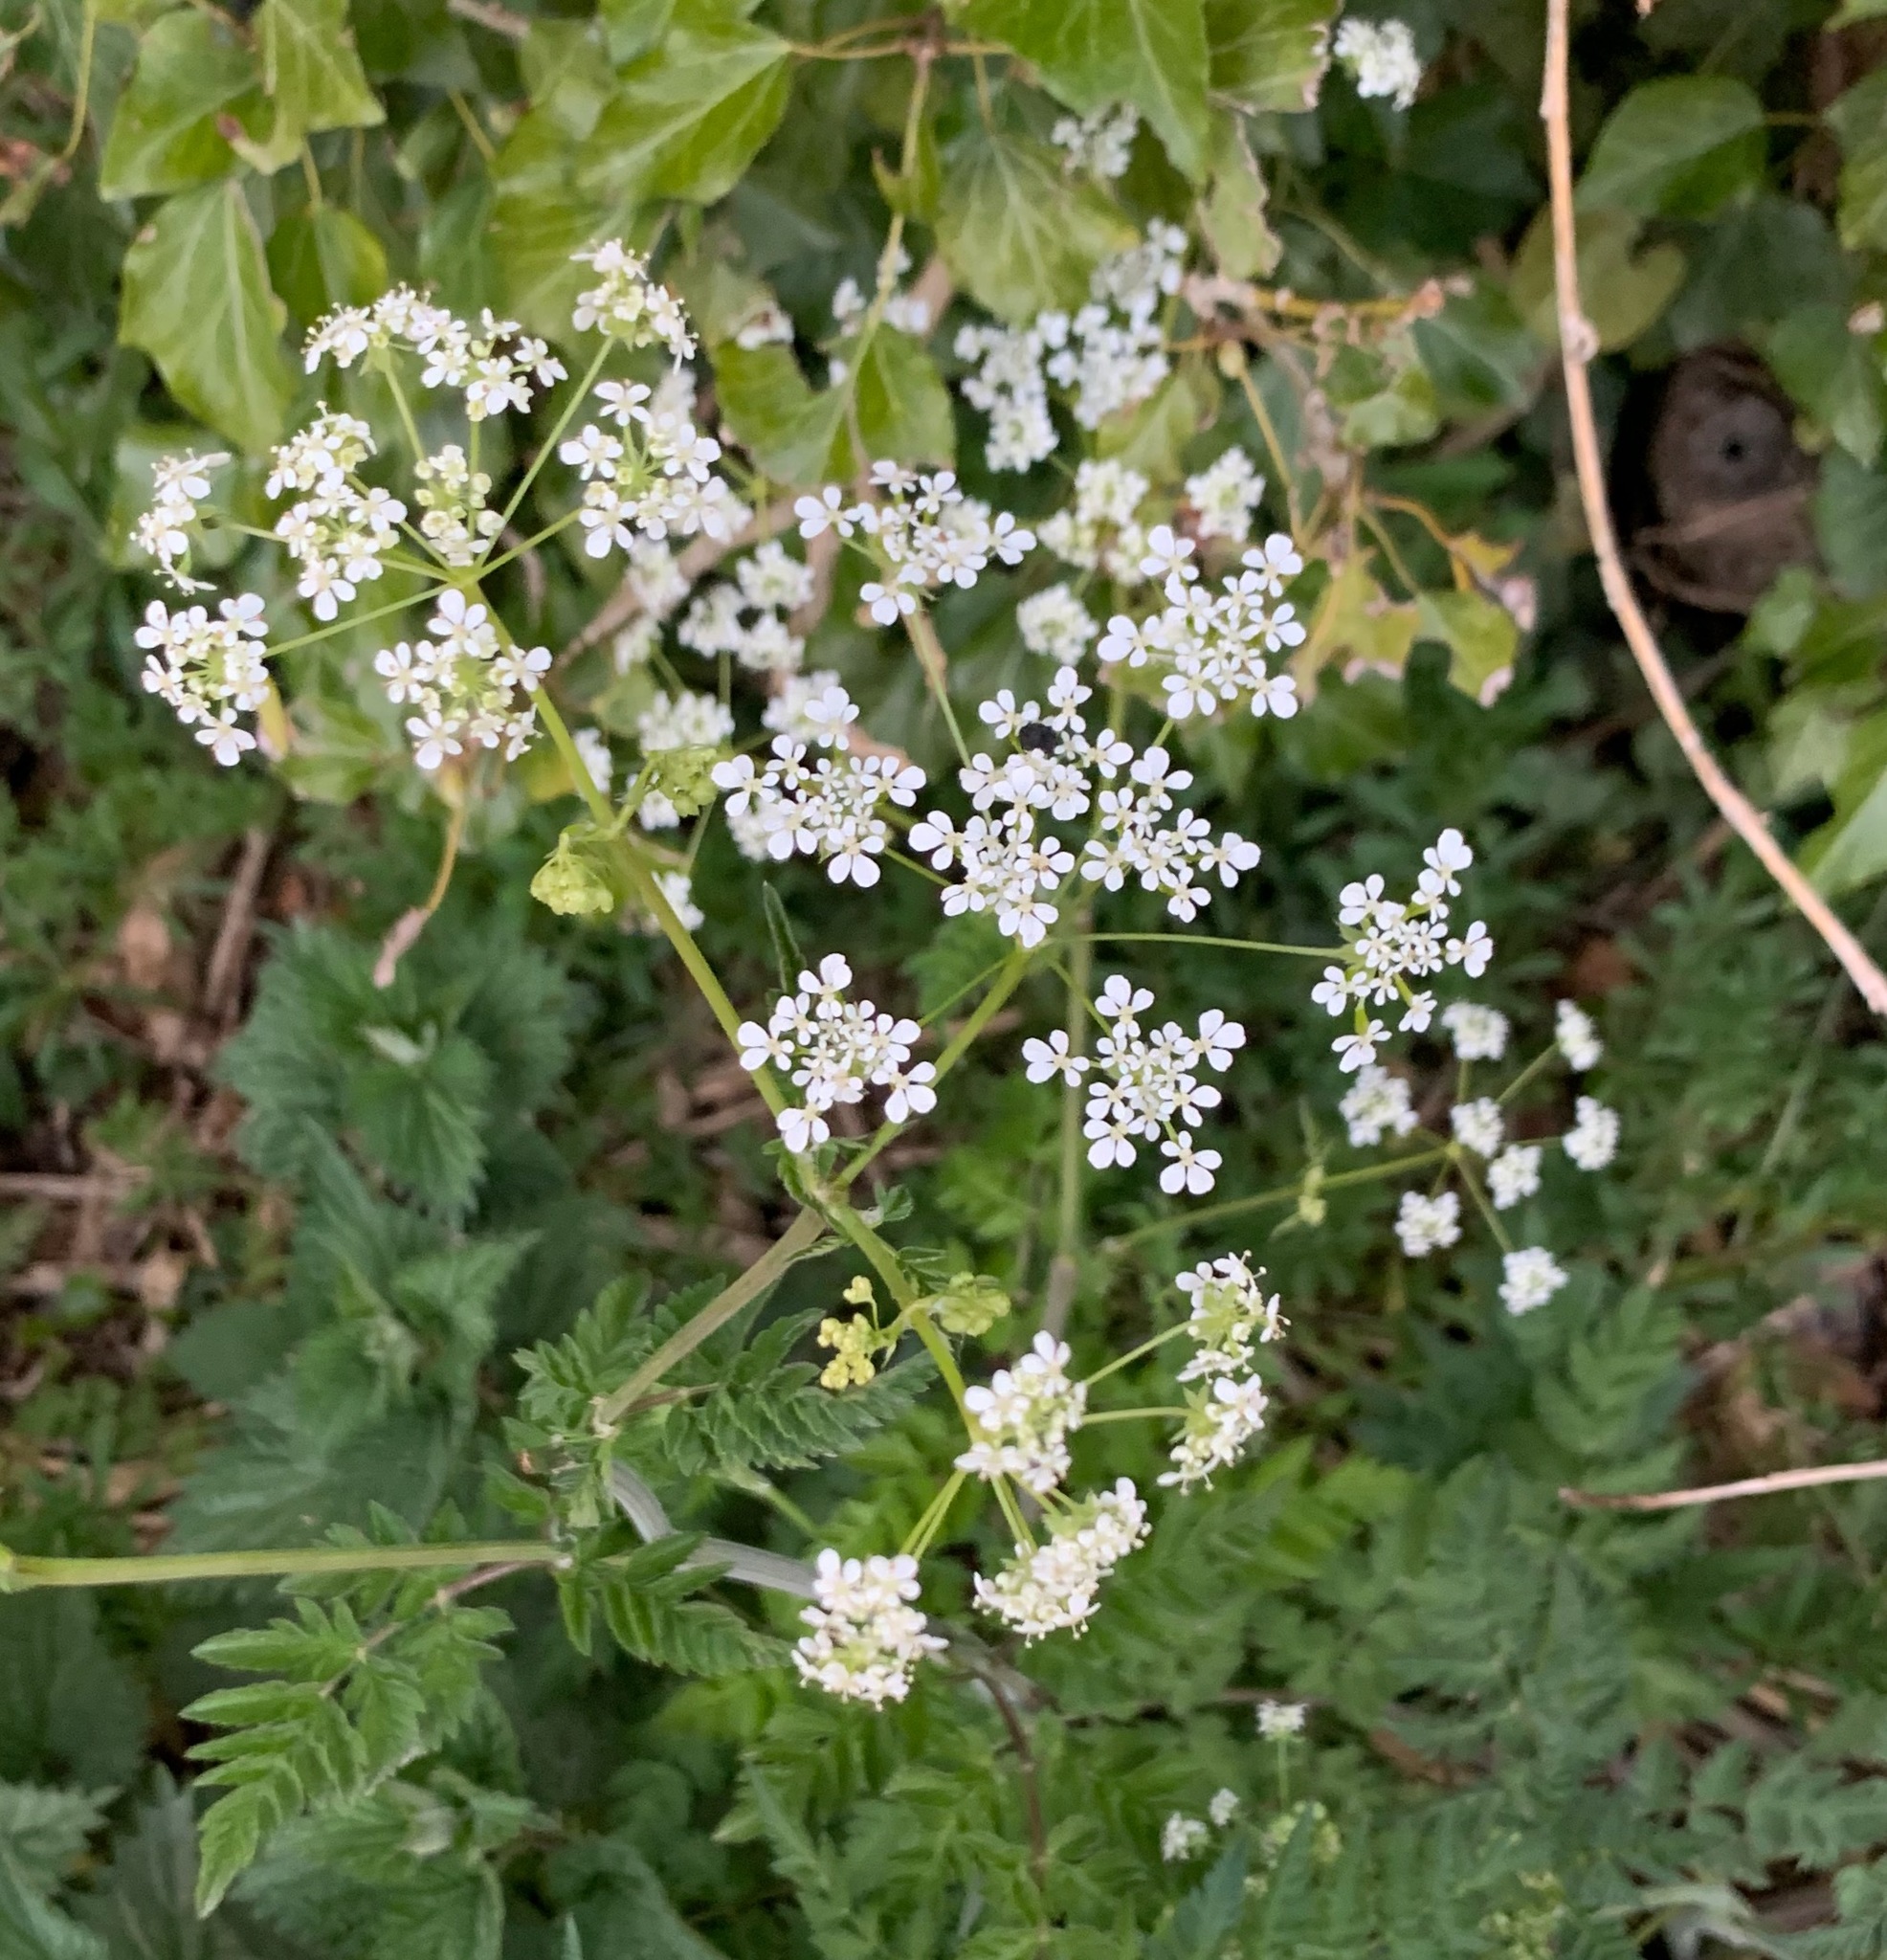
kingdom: Plantae
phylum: Tracheophyta
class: Magnoliopsida
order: Apiales
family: Apiaceae
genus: Anthriscus
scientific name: Anthriscus sylvestris
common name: Cow parsley
